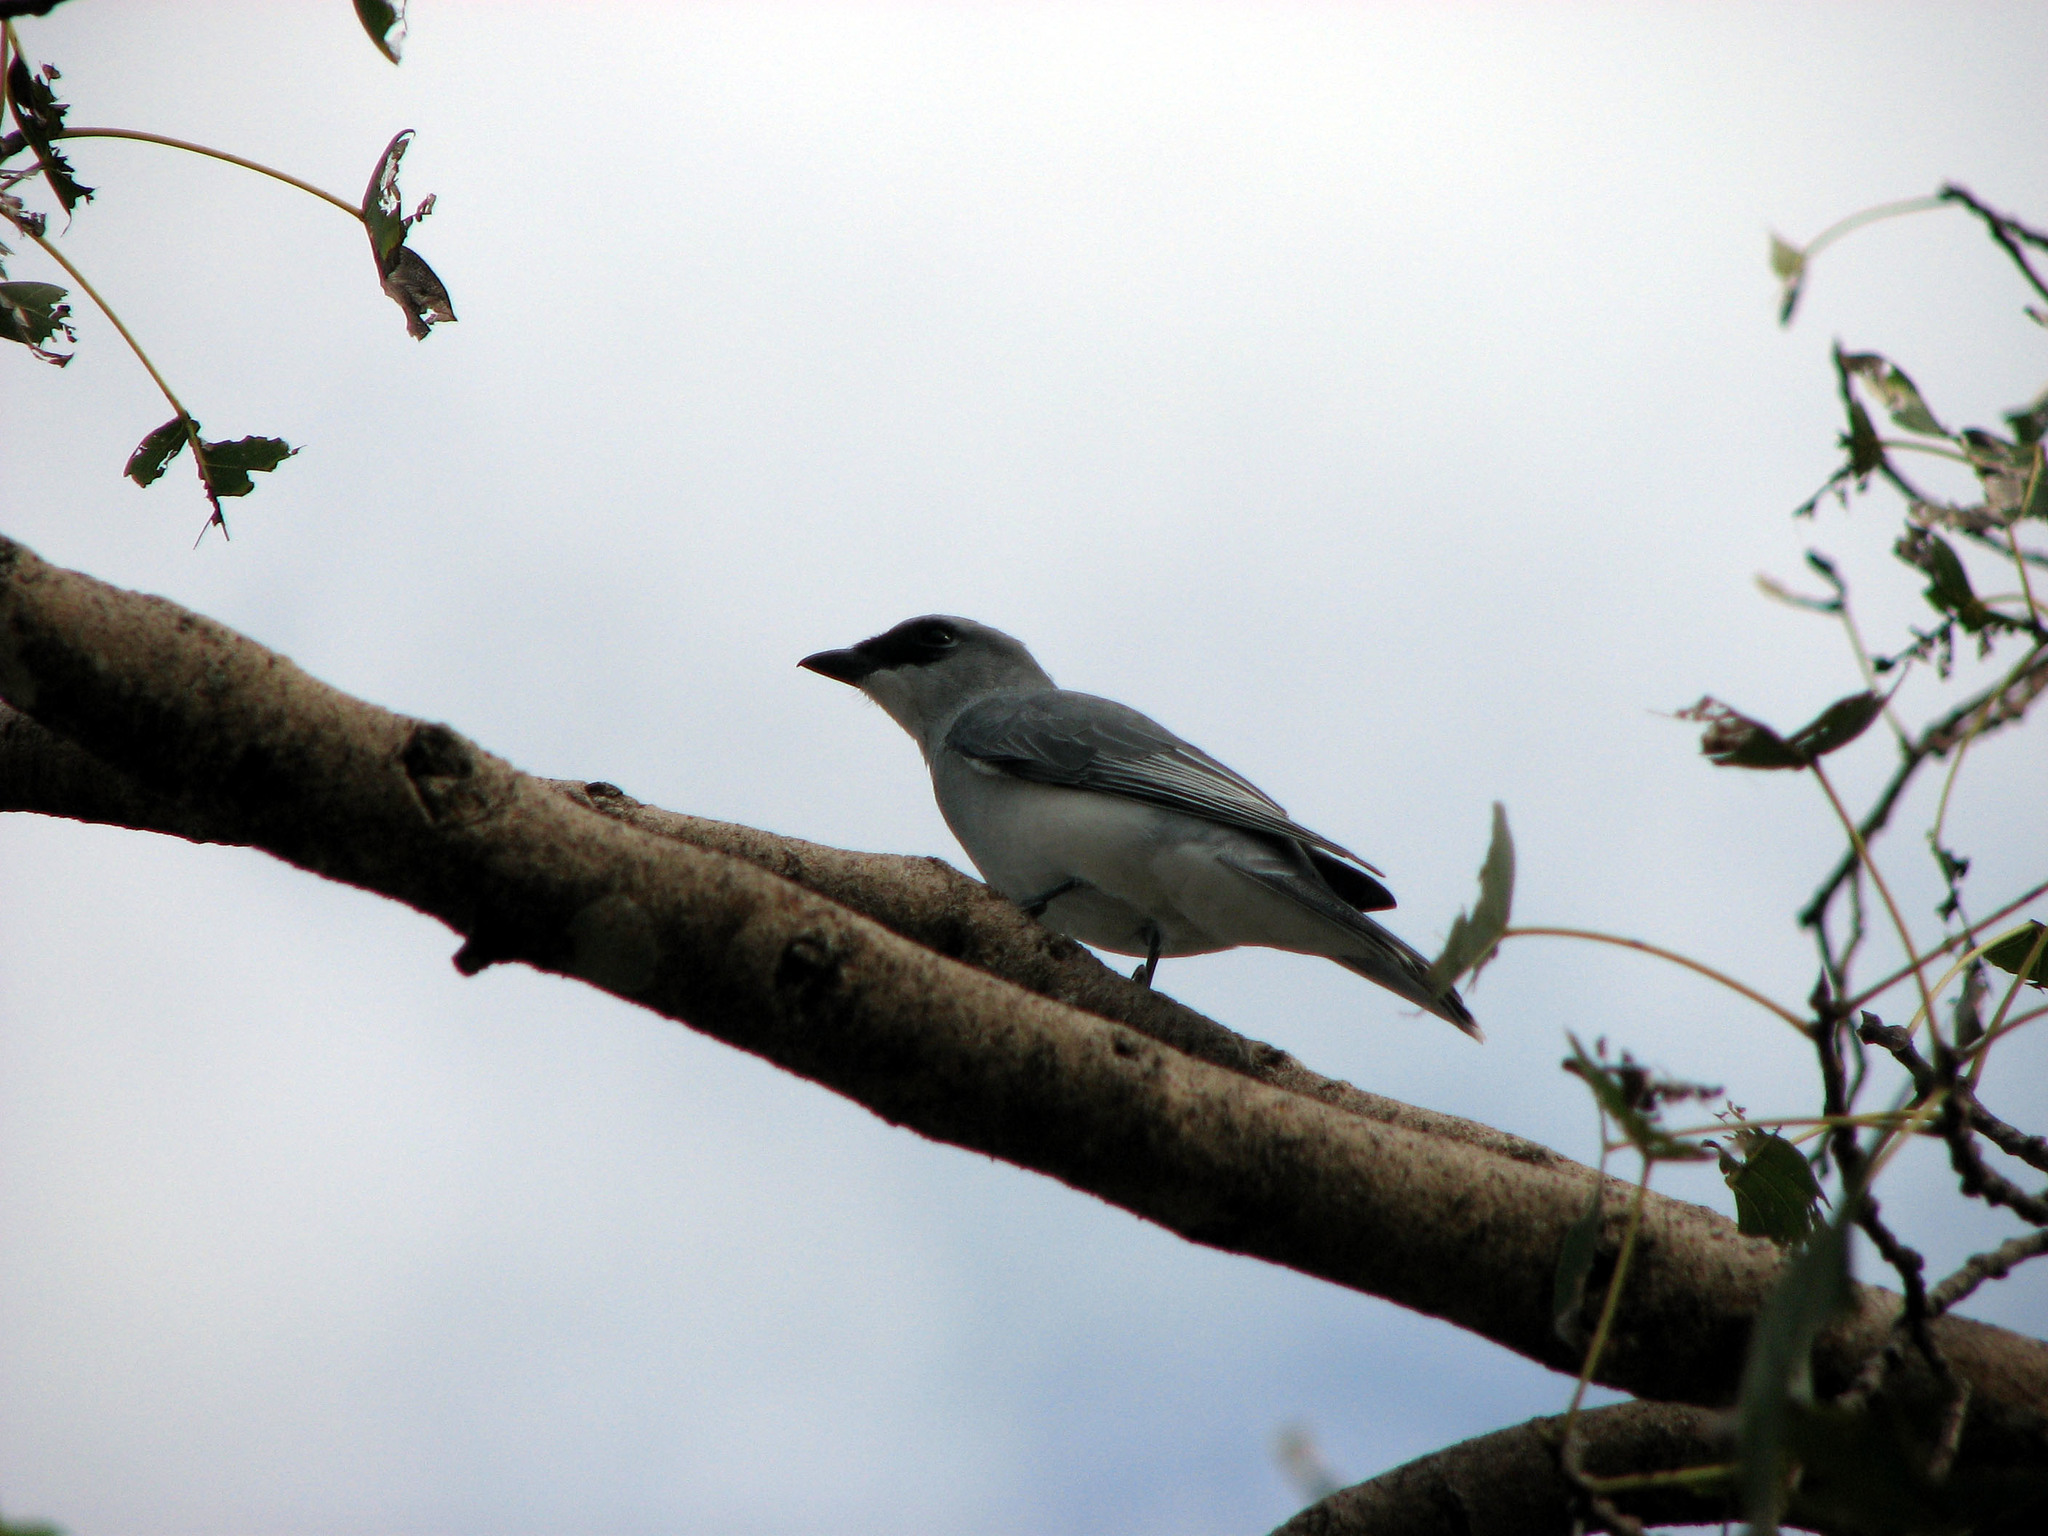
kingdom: Animalia
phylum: Chordata
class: Aves
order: Passeriformes
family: Campephagidae
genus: Coracina
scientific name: Coracina papuensis
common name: White-bellied cuckooshrike
